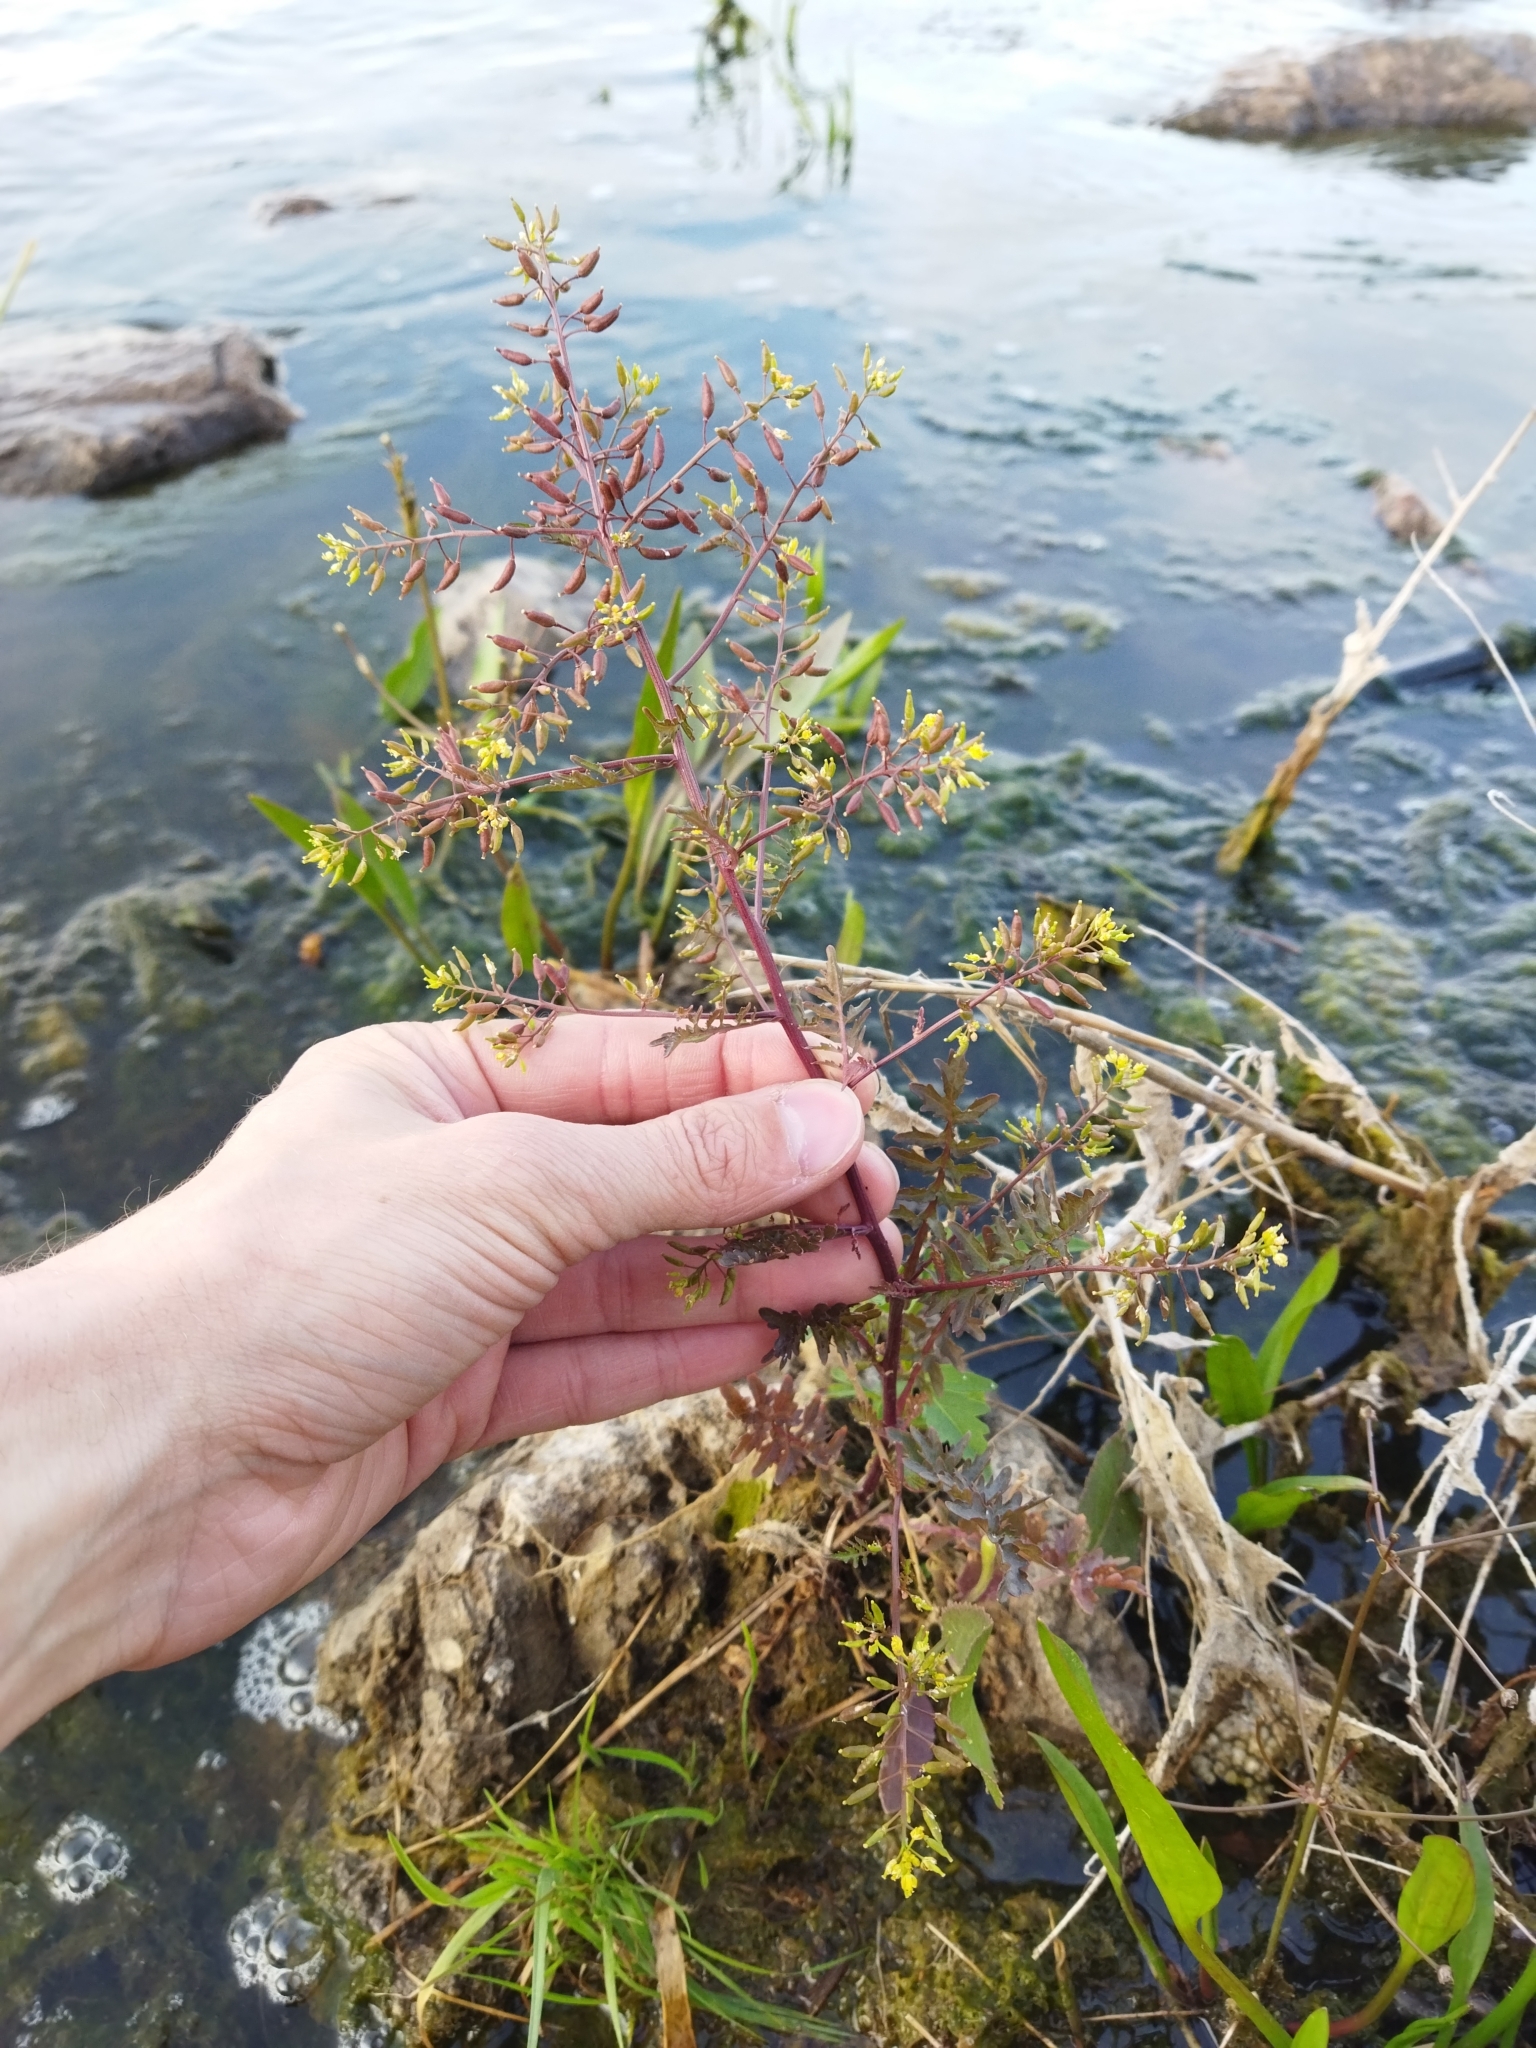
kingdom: Plantae
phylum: Tracheophyta
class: Magnoliopsida
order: Brassicales
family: Brassicaceae
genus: Rorippa
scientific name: Rorippa palustris
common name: Marsh yellow-cress
